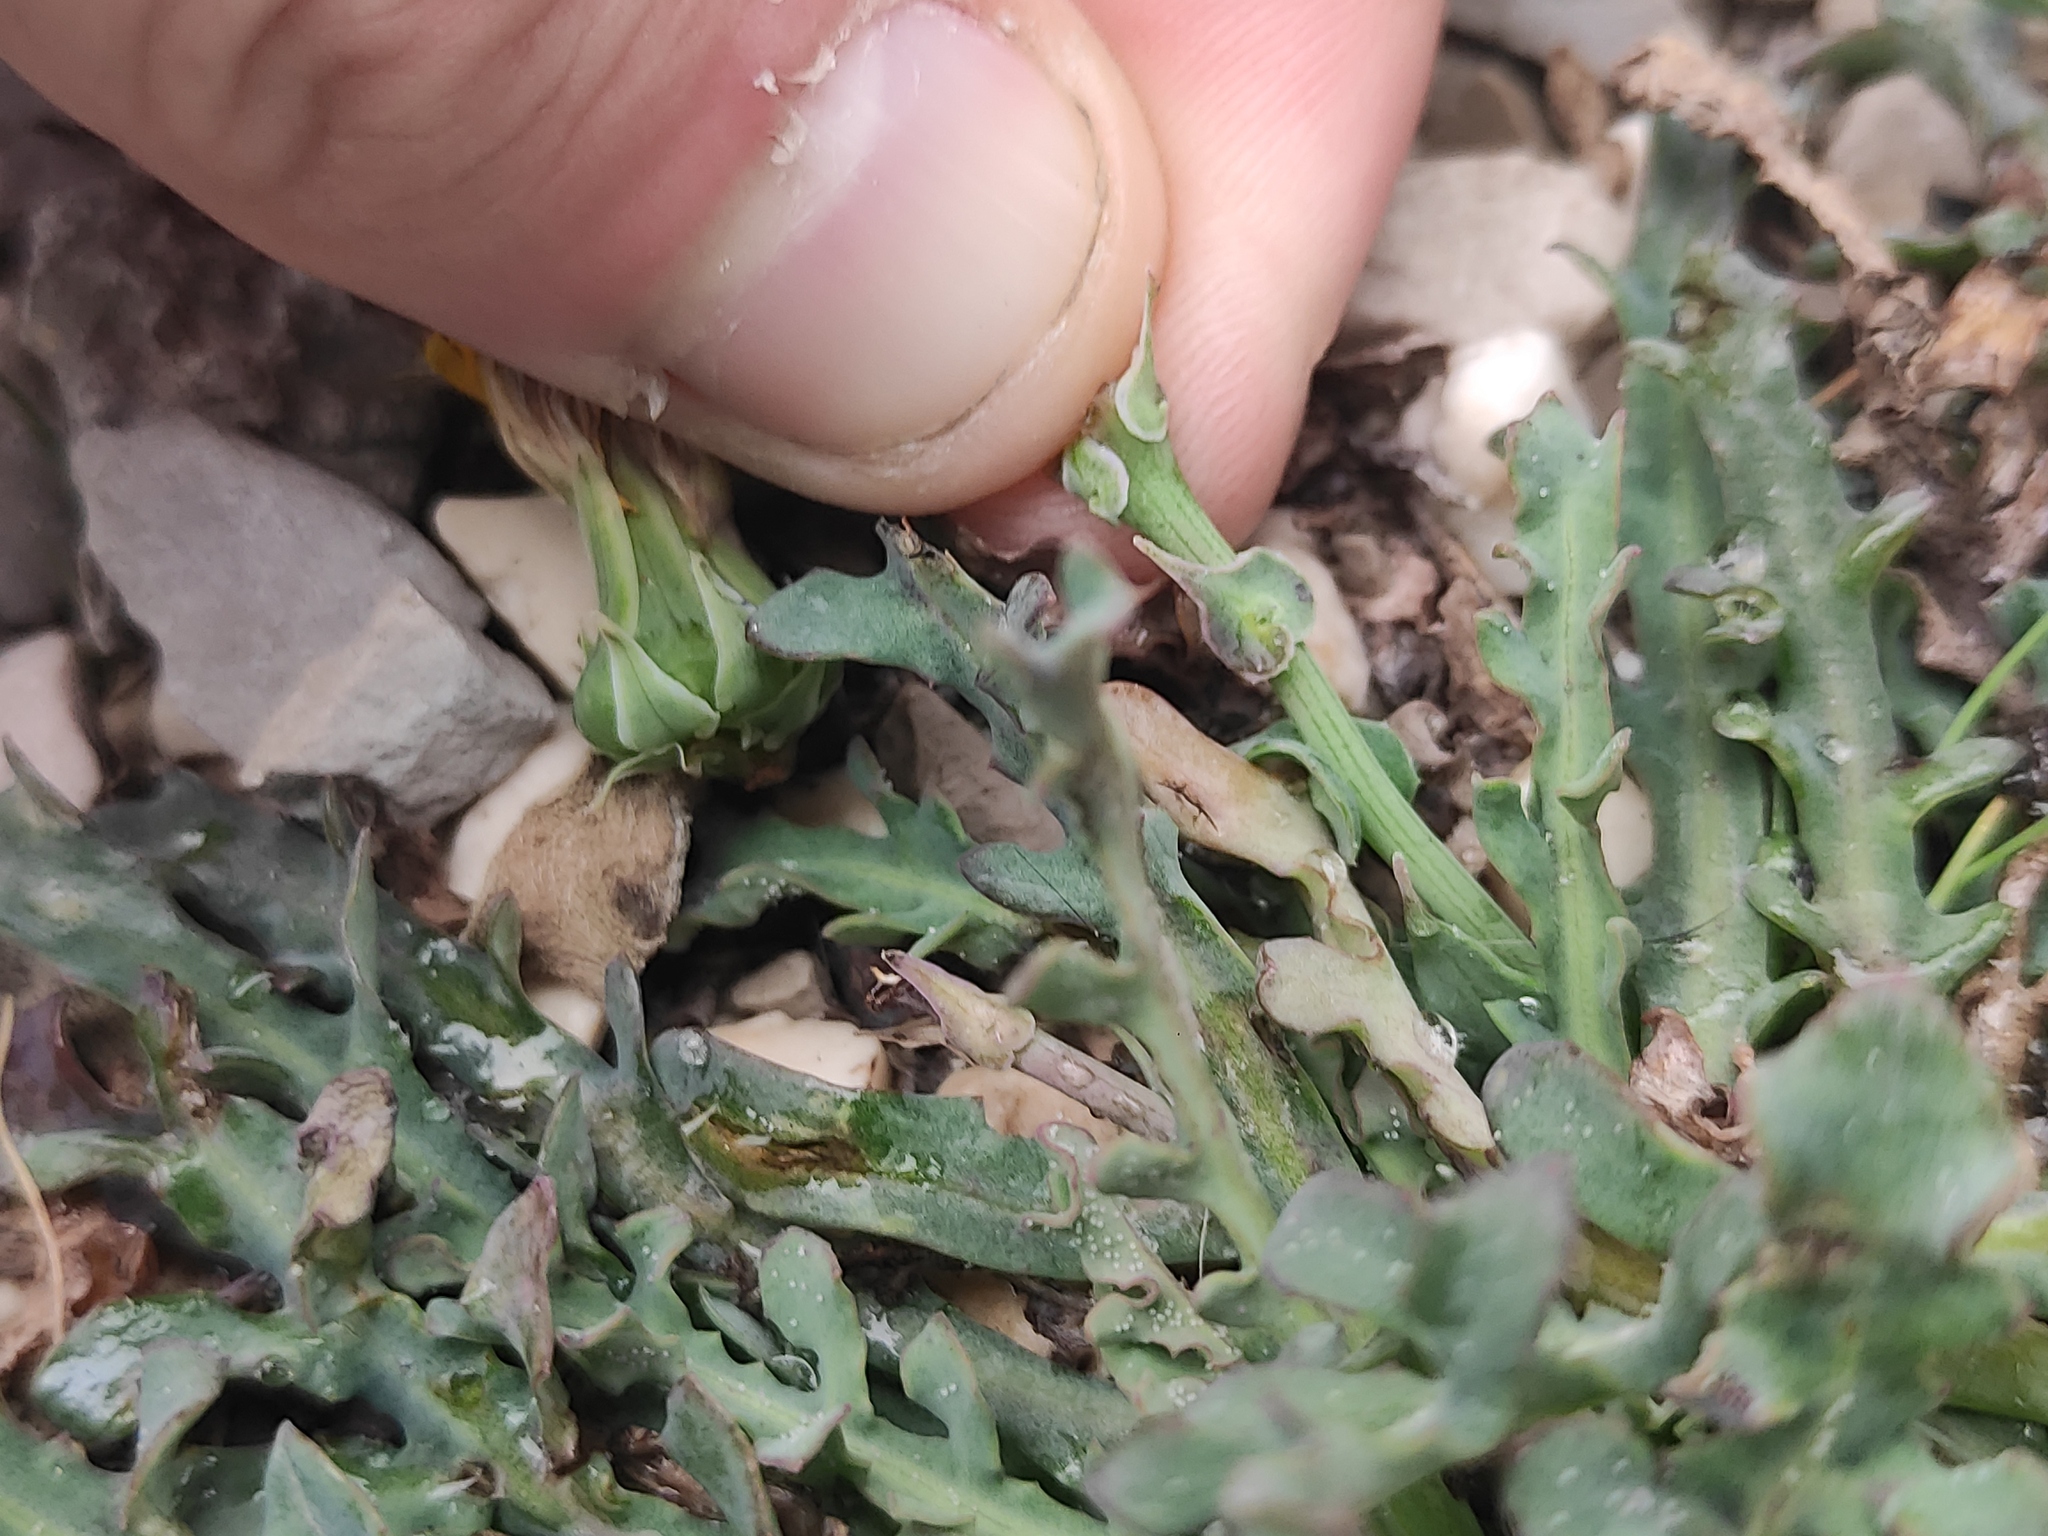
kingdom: Plantae
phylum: Tracheophyta
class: Magnoliopsida
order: Asterales
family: Asteraceae
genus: Reichardia
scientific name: Reichardia picroides
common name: Common brighteyes
